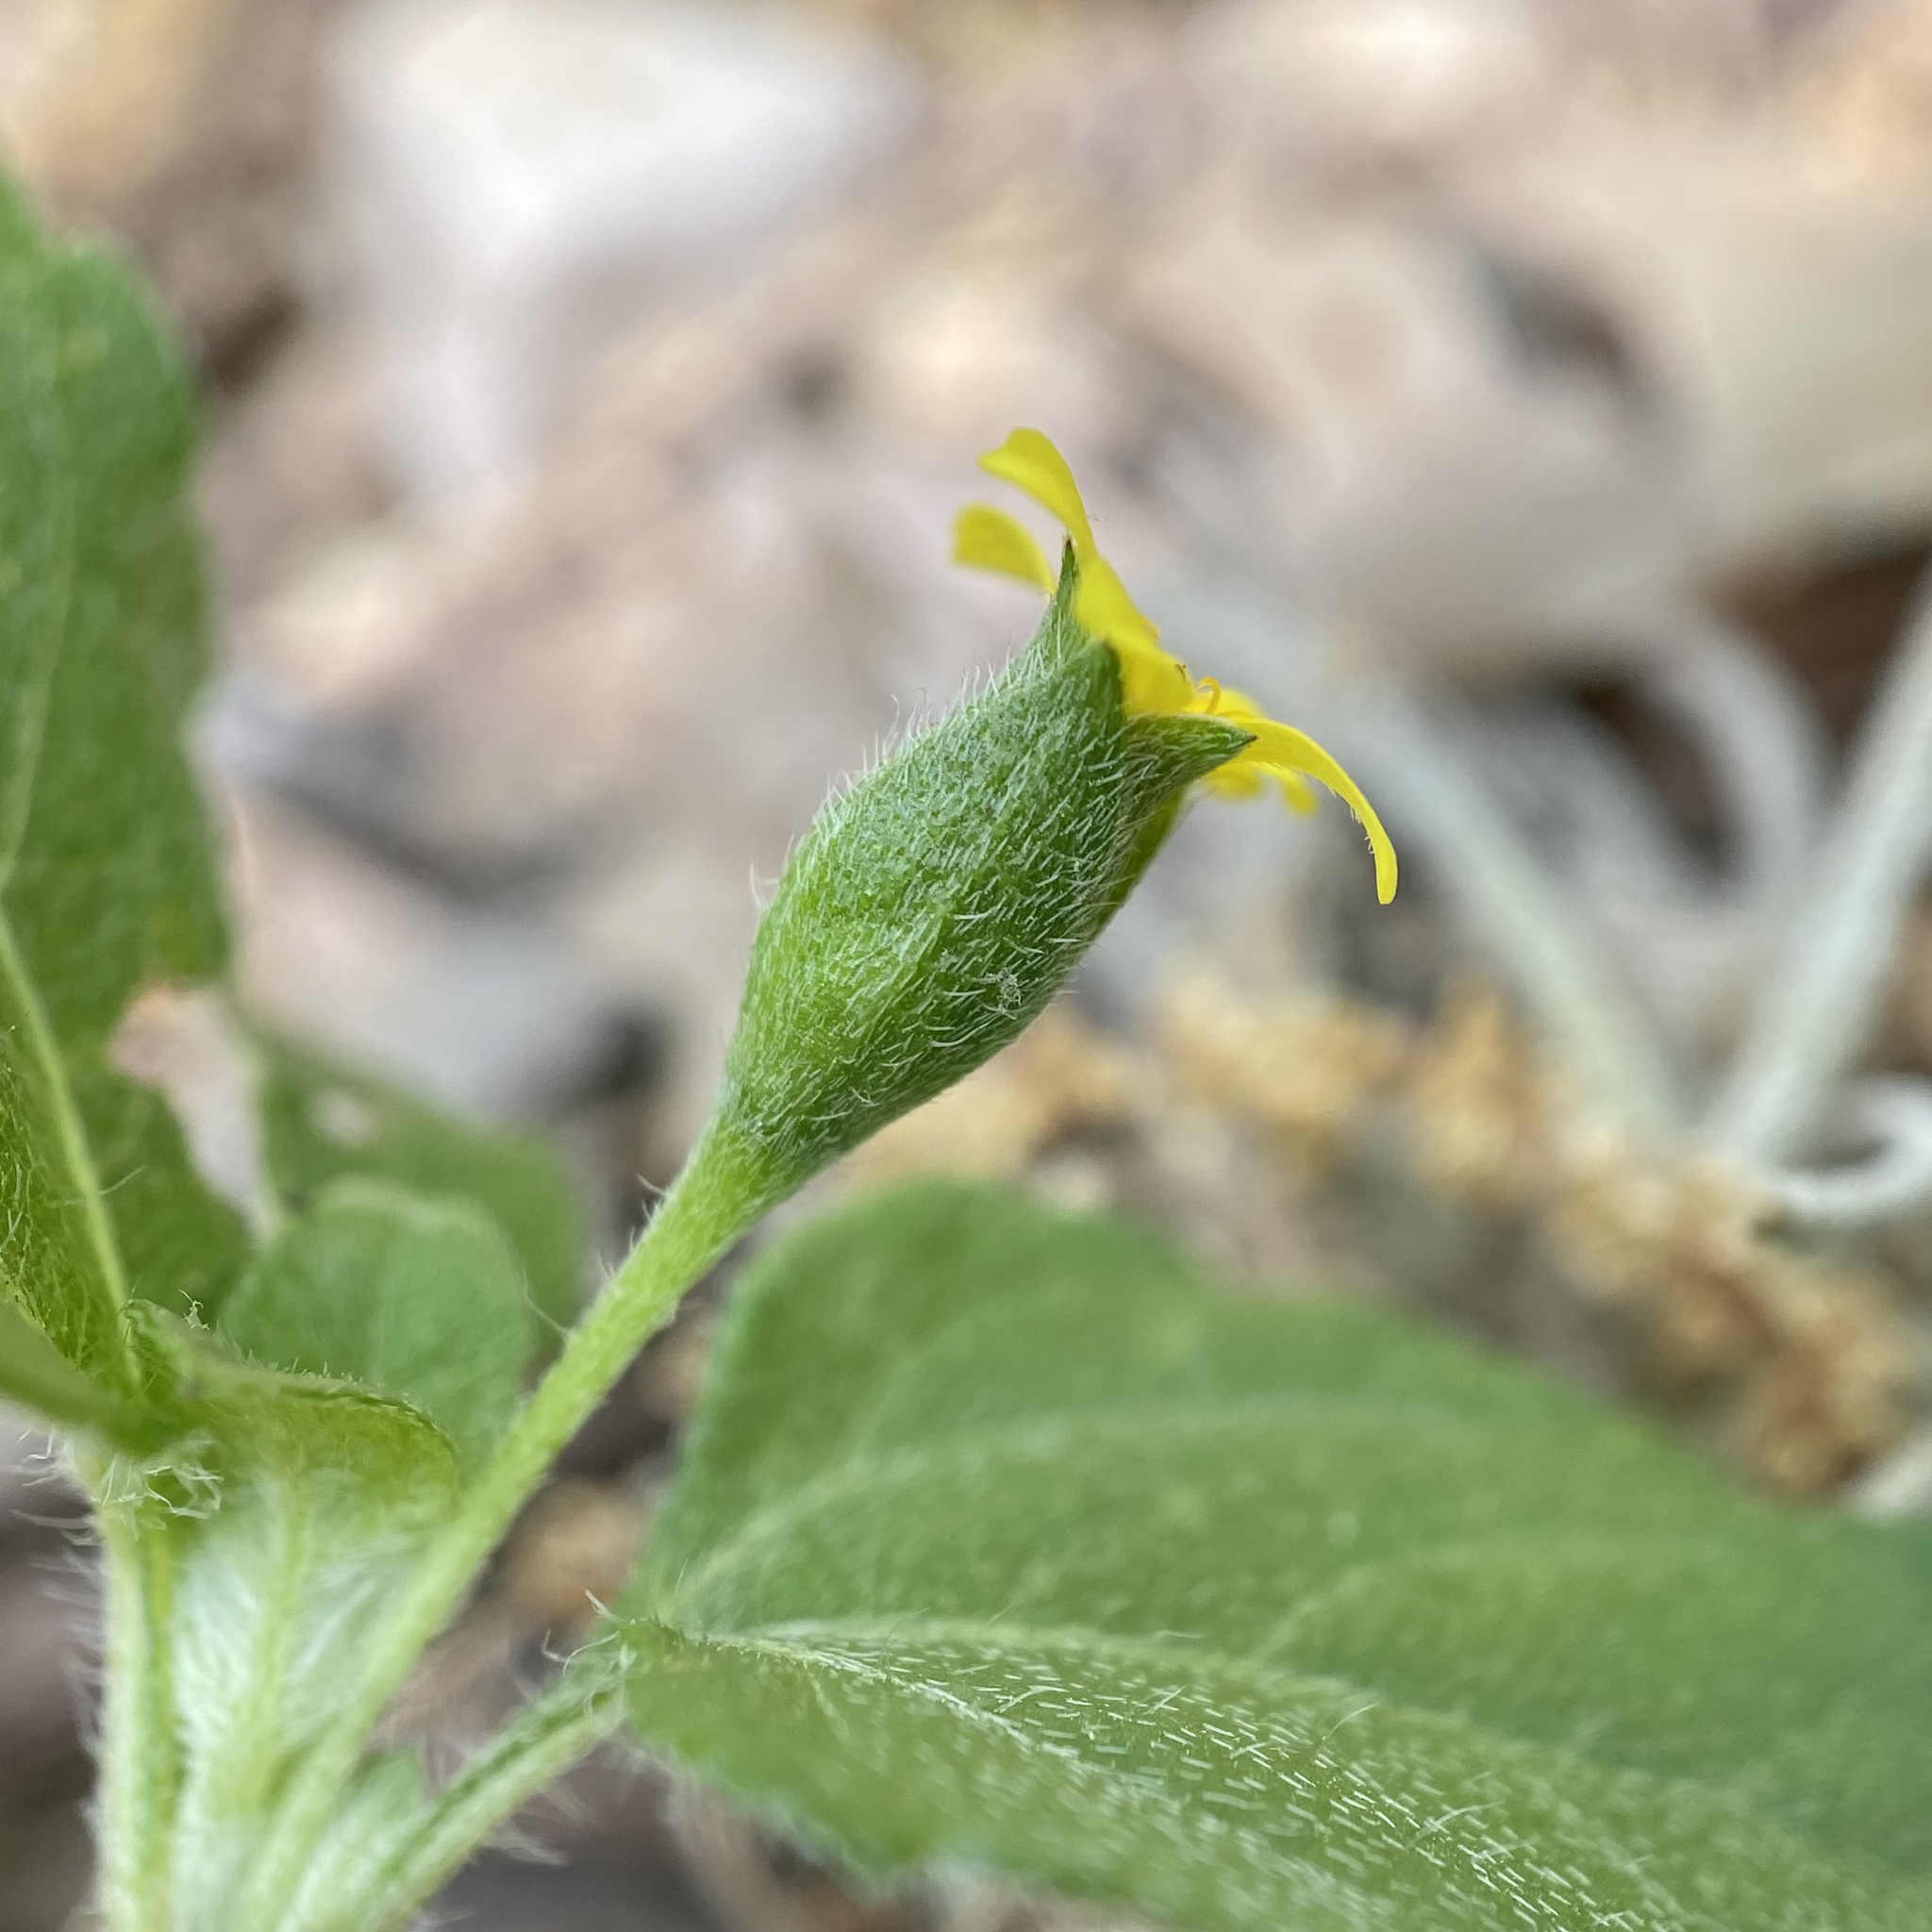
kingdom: Plantae
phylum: Tracheophyta
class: Magnoliopsida
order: Asterales
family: Asteraceae
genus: Calyptocarpus
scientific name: Calyptocarpus vialis
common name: Straggler daisy
